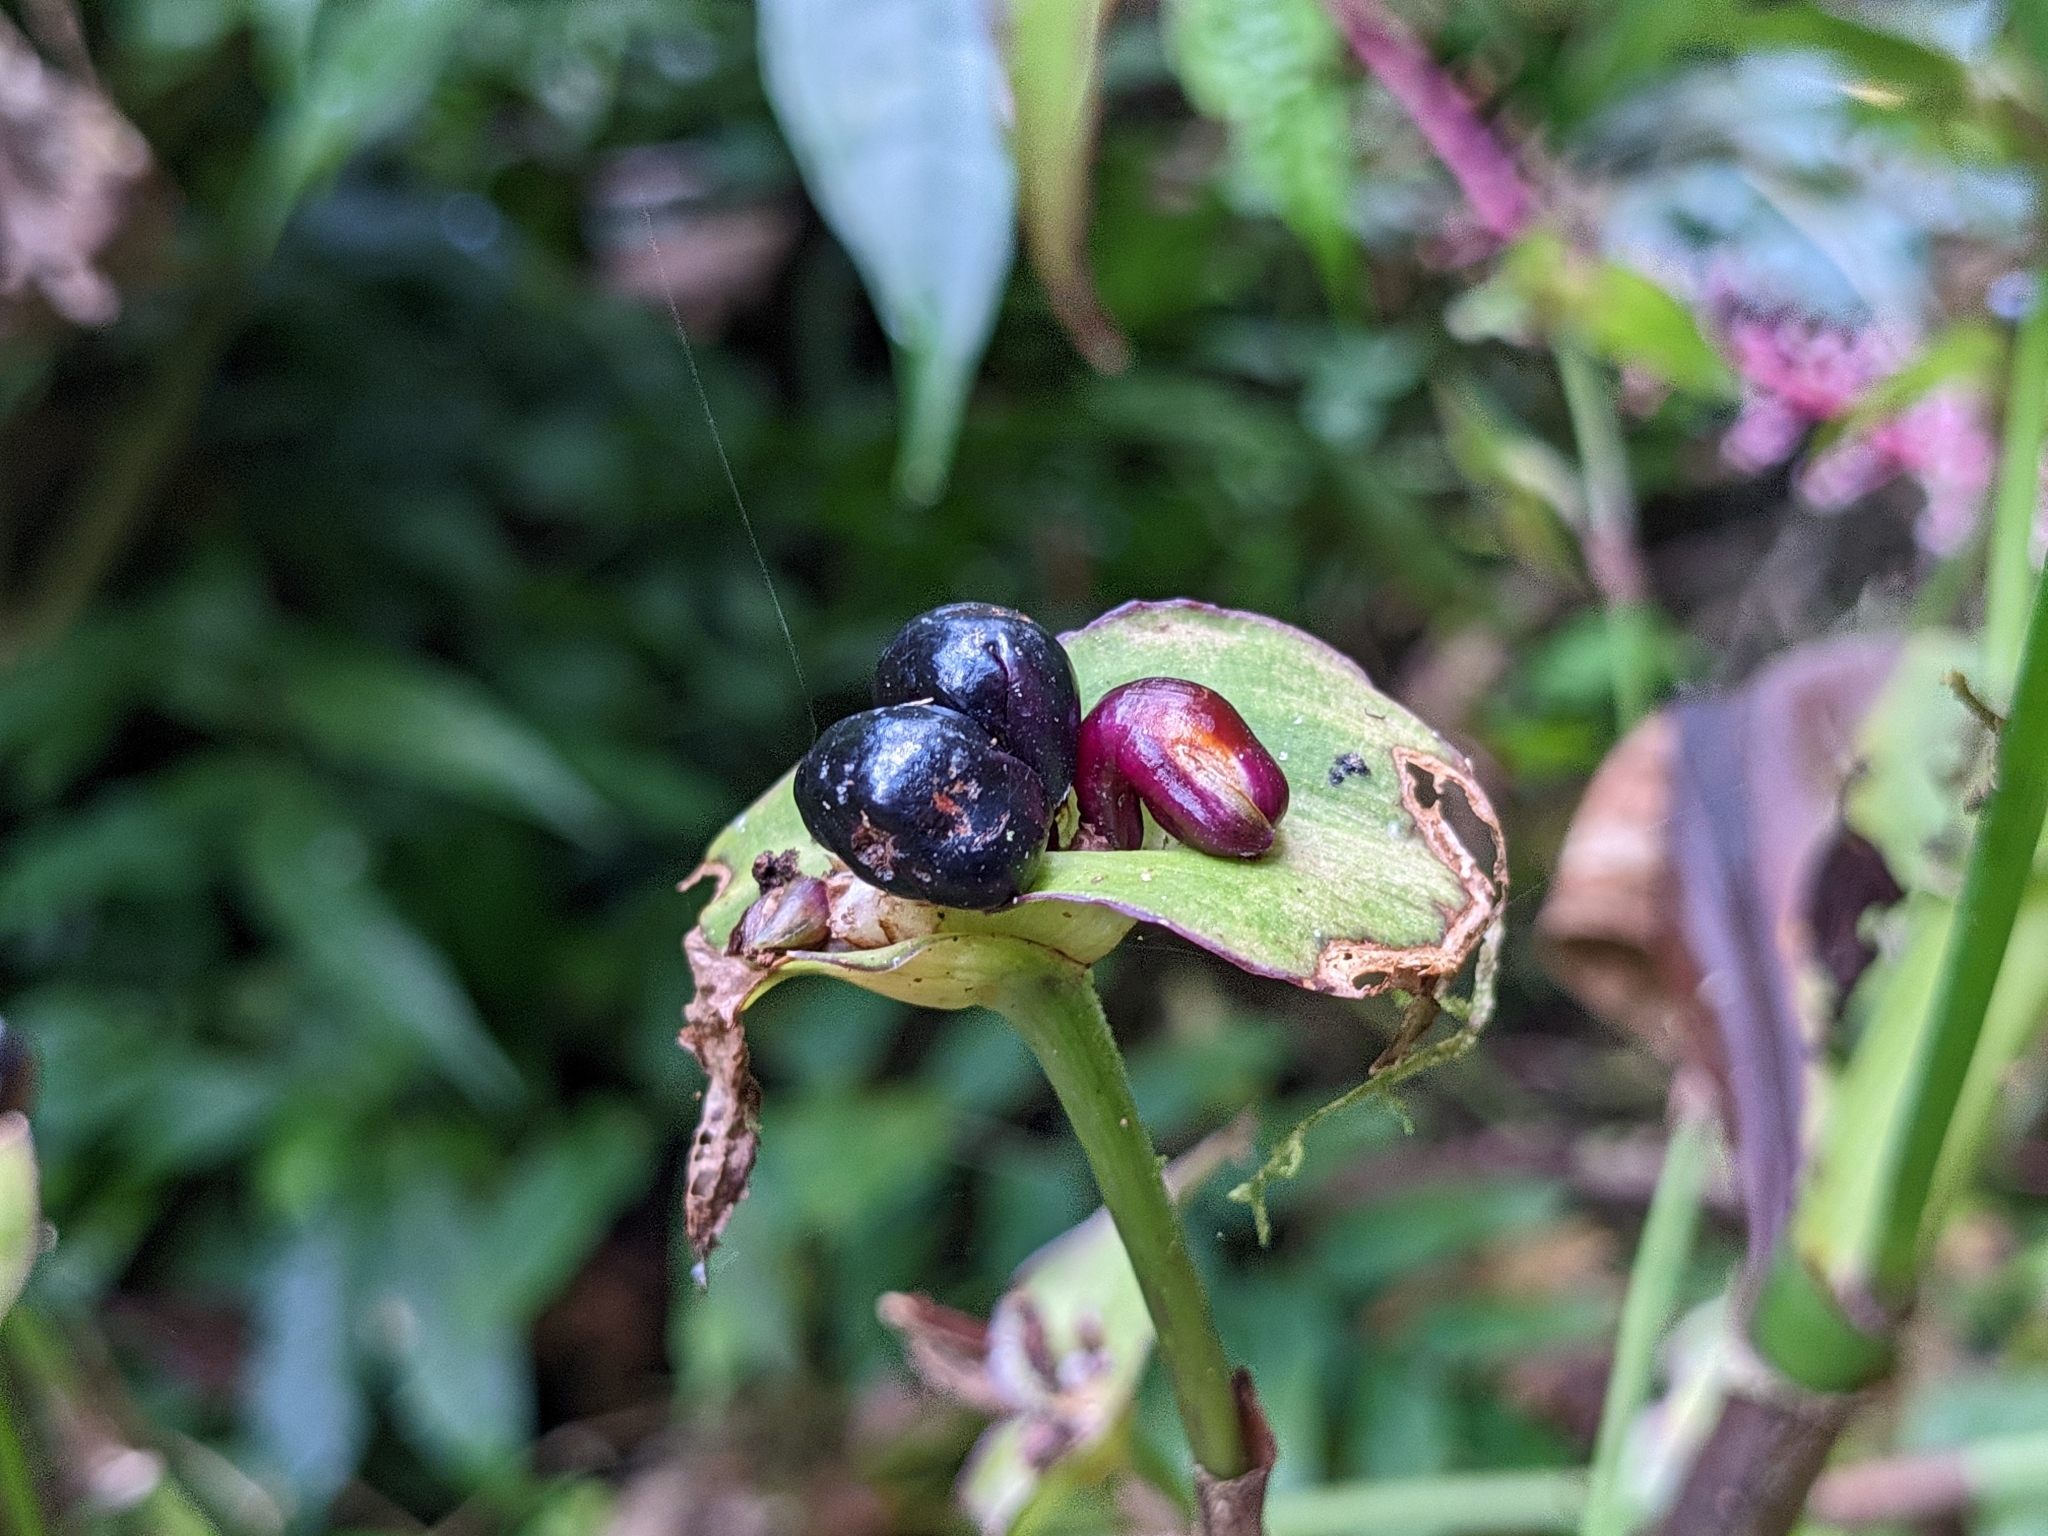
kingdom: Plantae
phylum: Tracheophyta
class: Liliopsida
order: Commelinales
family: Commelinaceae
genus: Tradescantia
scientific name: Tradescantia zanonia
